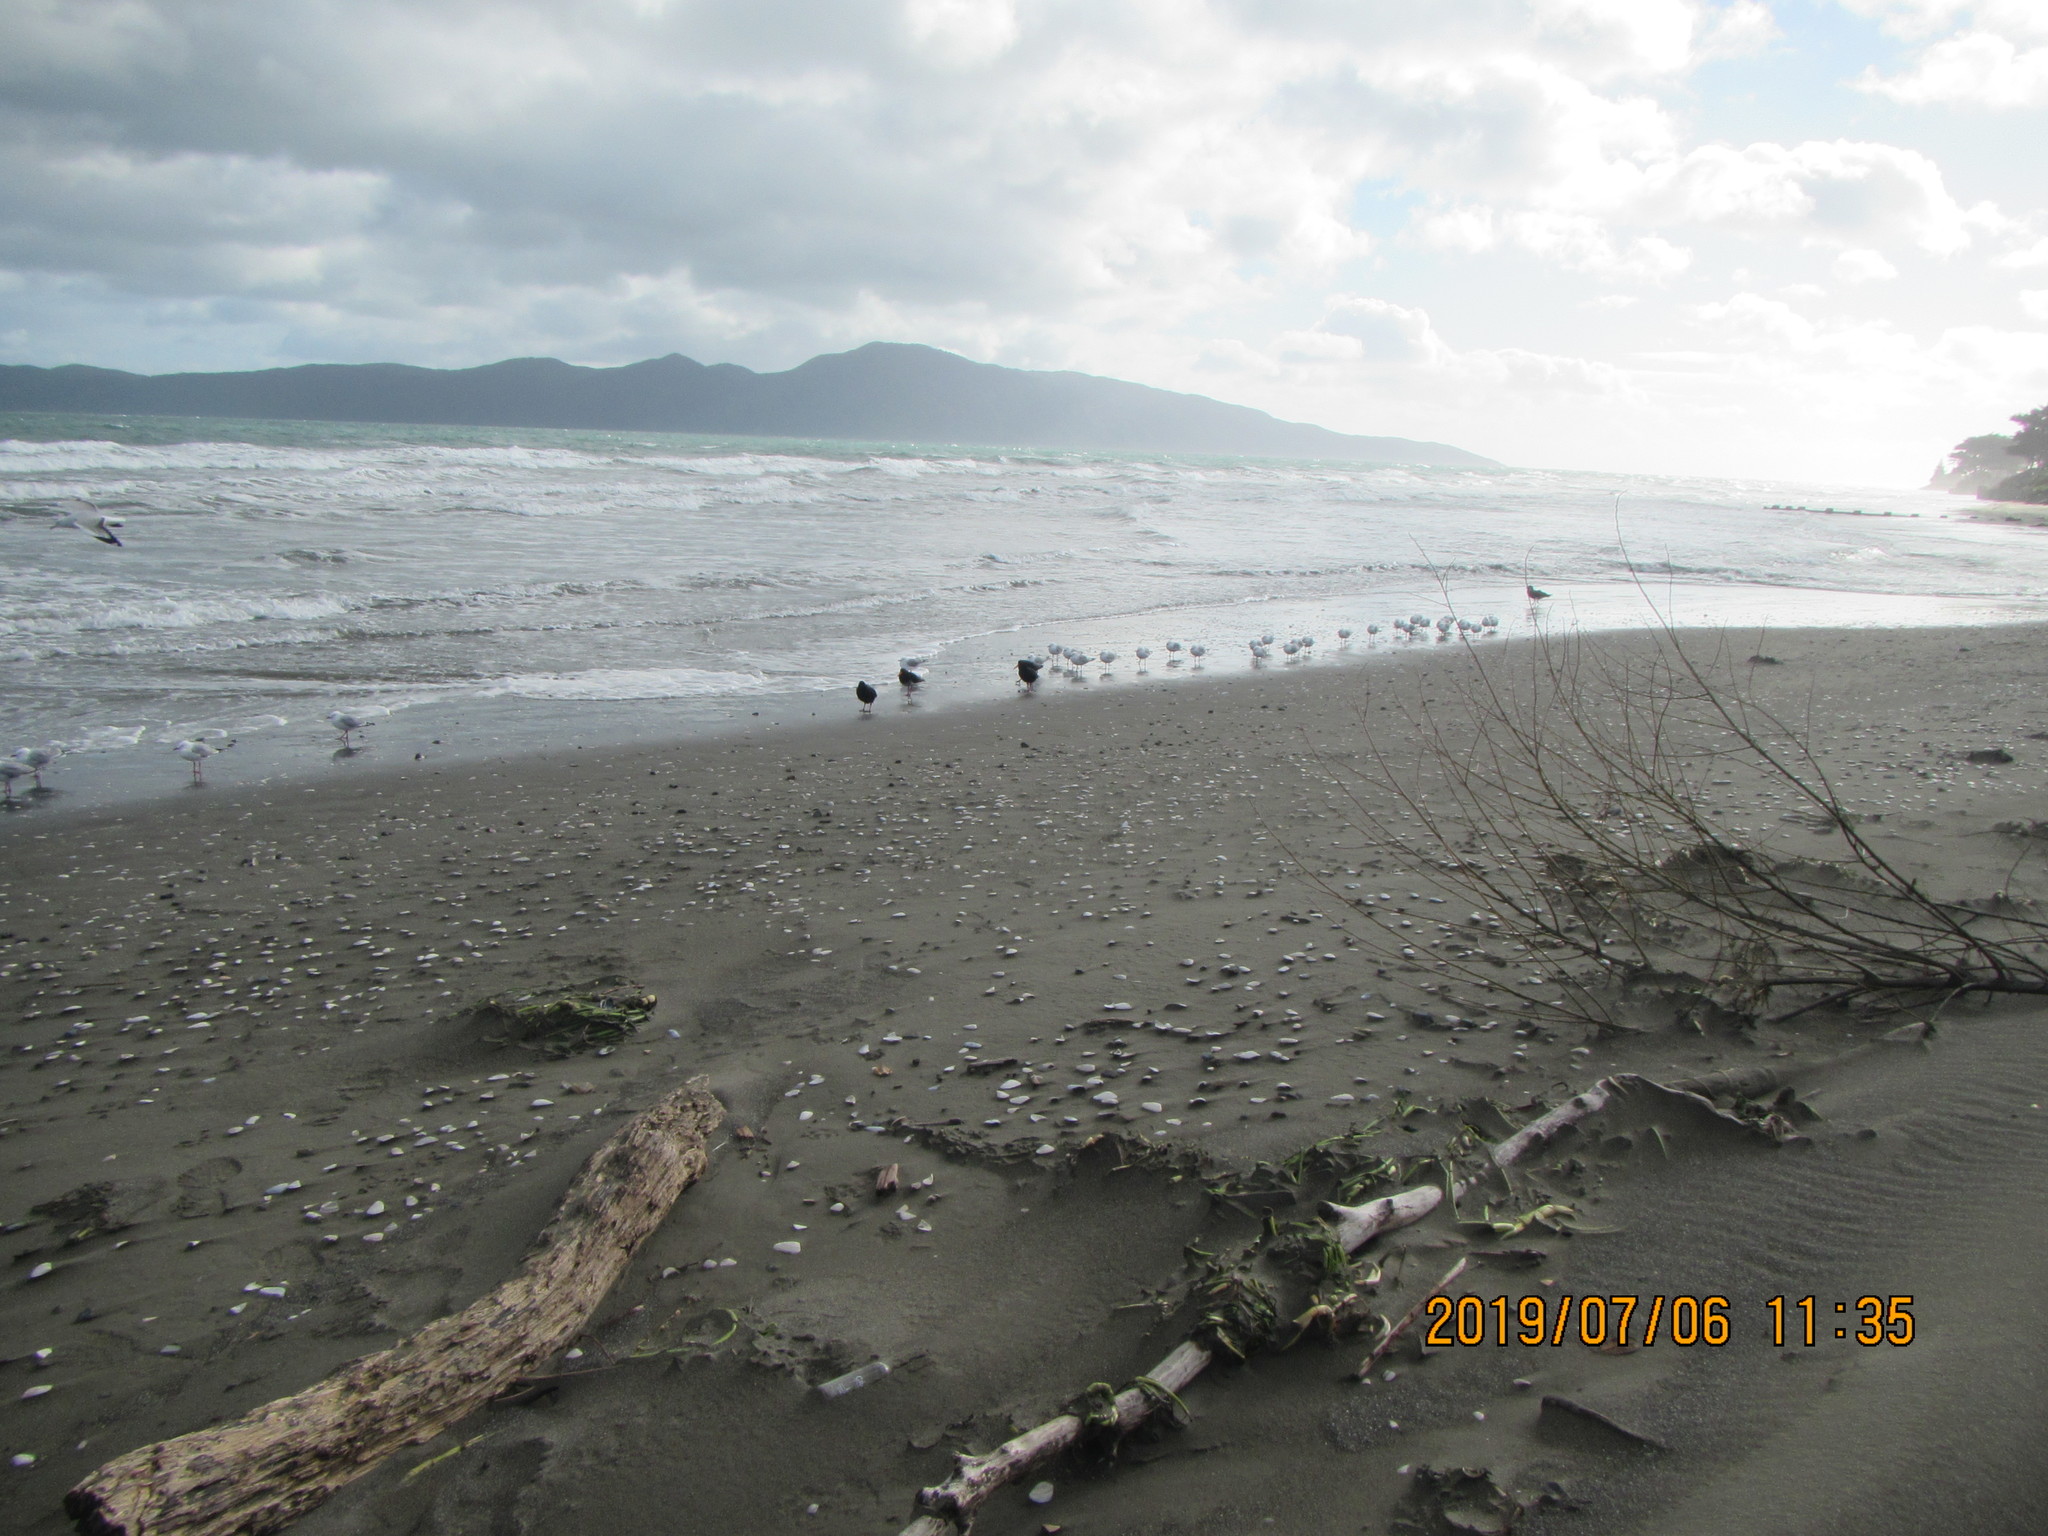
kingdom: Animalia
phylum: Chordata
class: Aves
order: Charadriiformes
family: Laridae
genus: Chroicocephalus
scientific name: Chroicocephalus novaehollandiae
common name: Silver gull
